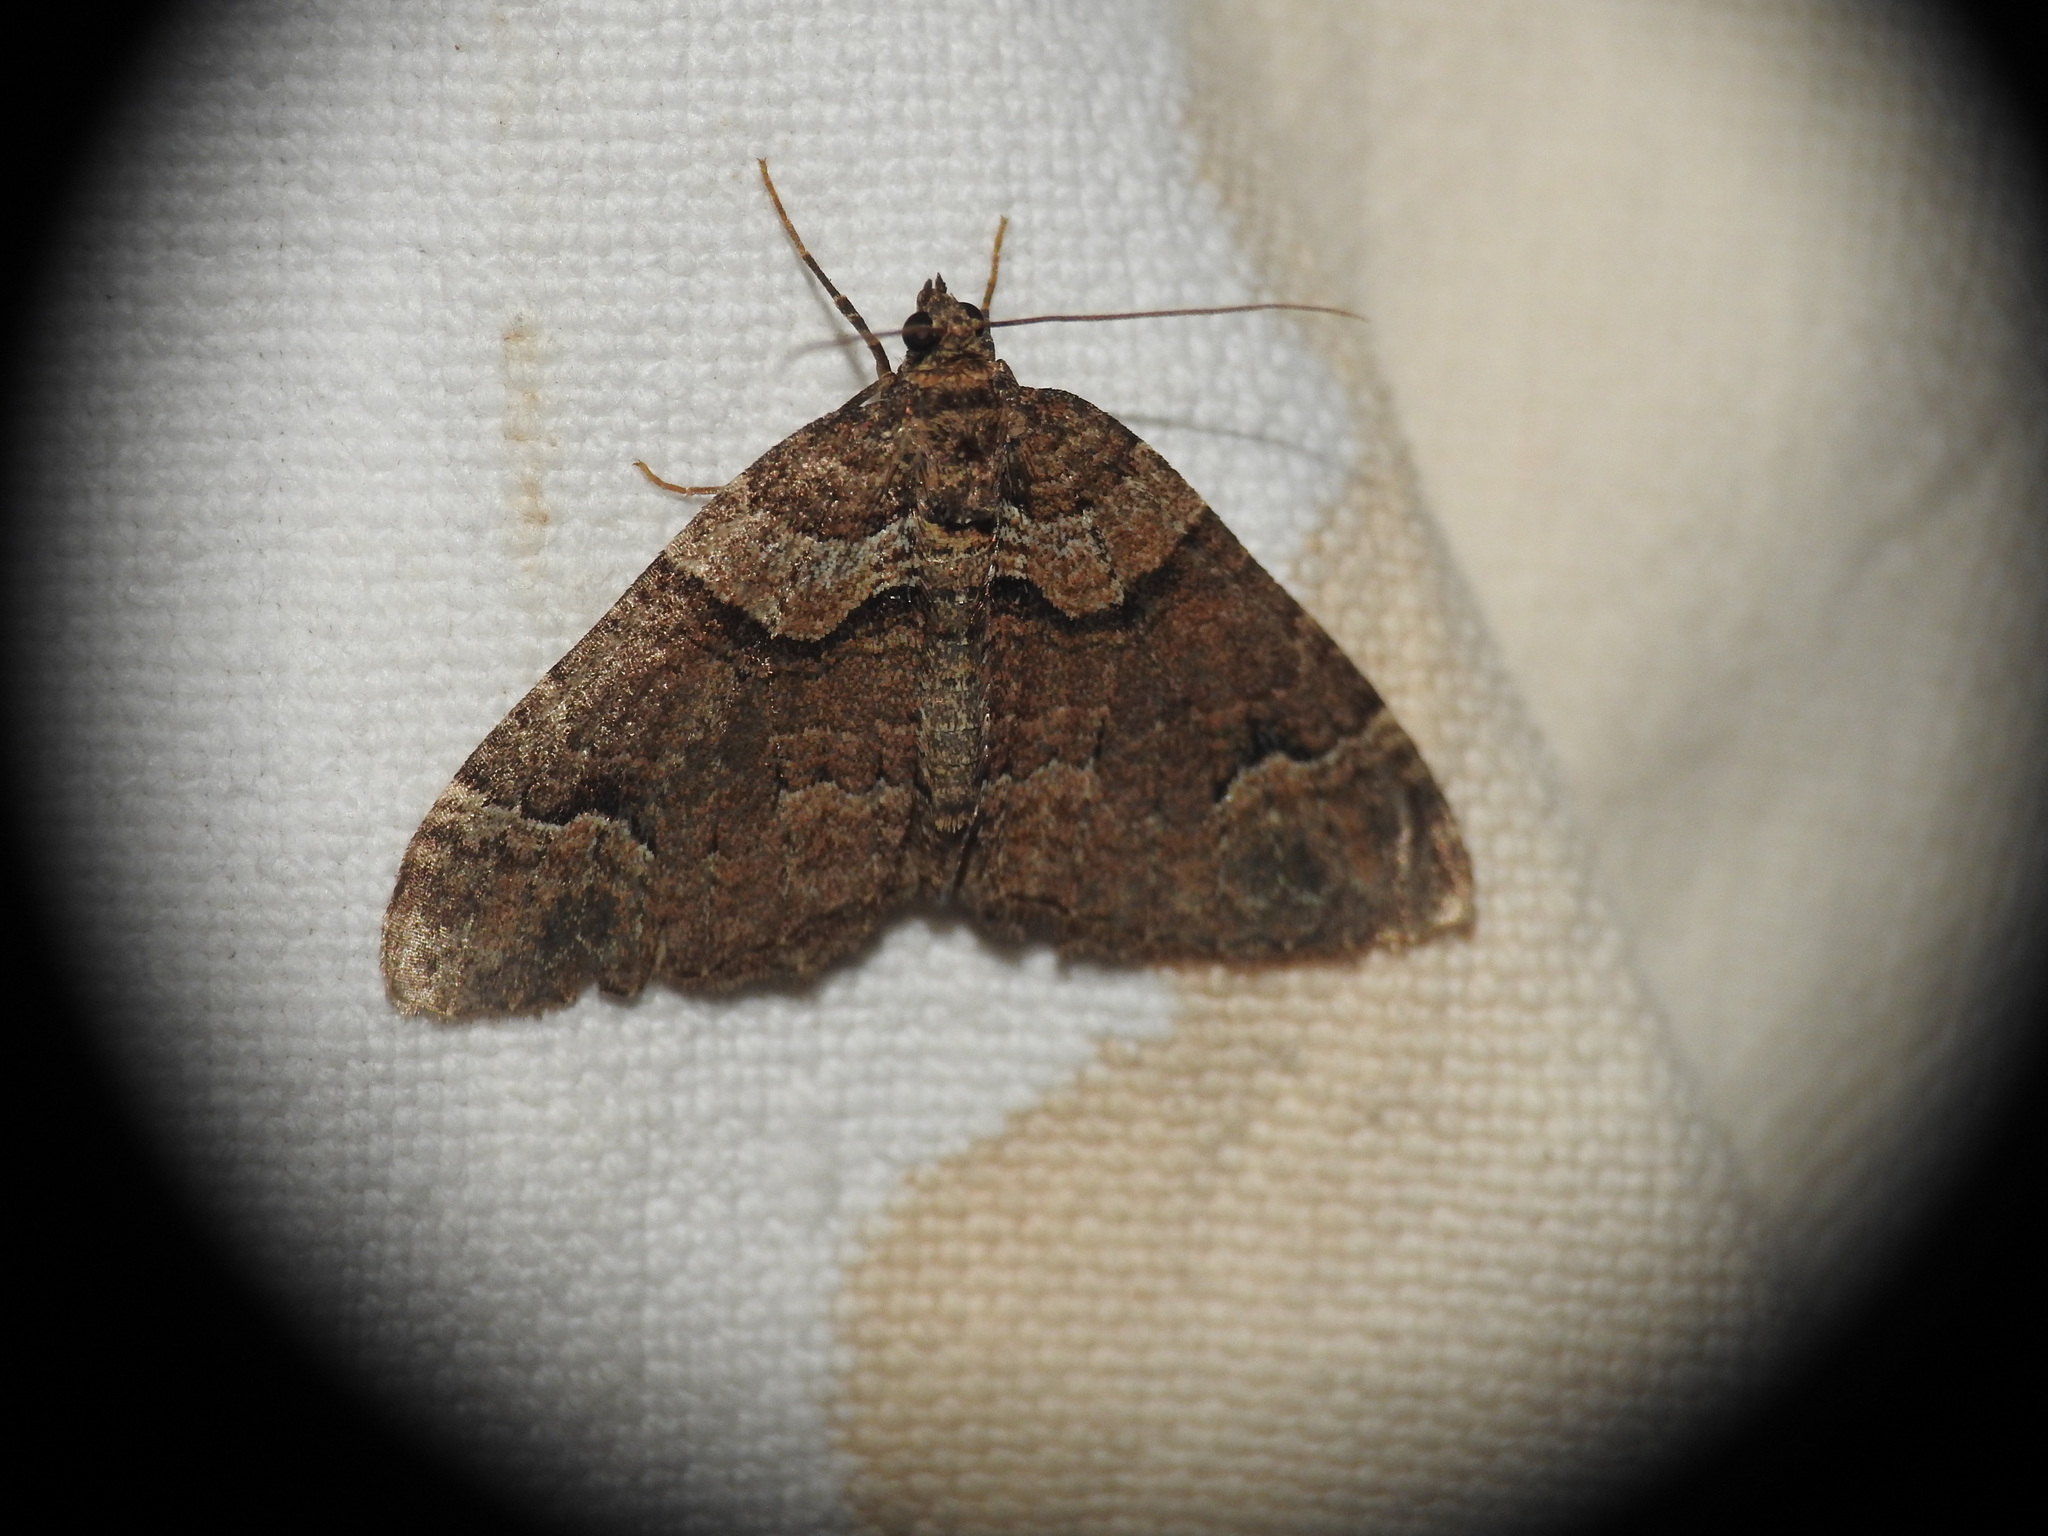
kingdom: Animalia
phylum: Arthropoda
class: Insecta
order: Lepidoptera
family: Geometridae
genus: Catarhoe
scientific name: Catarhoe basochesiata
